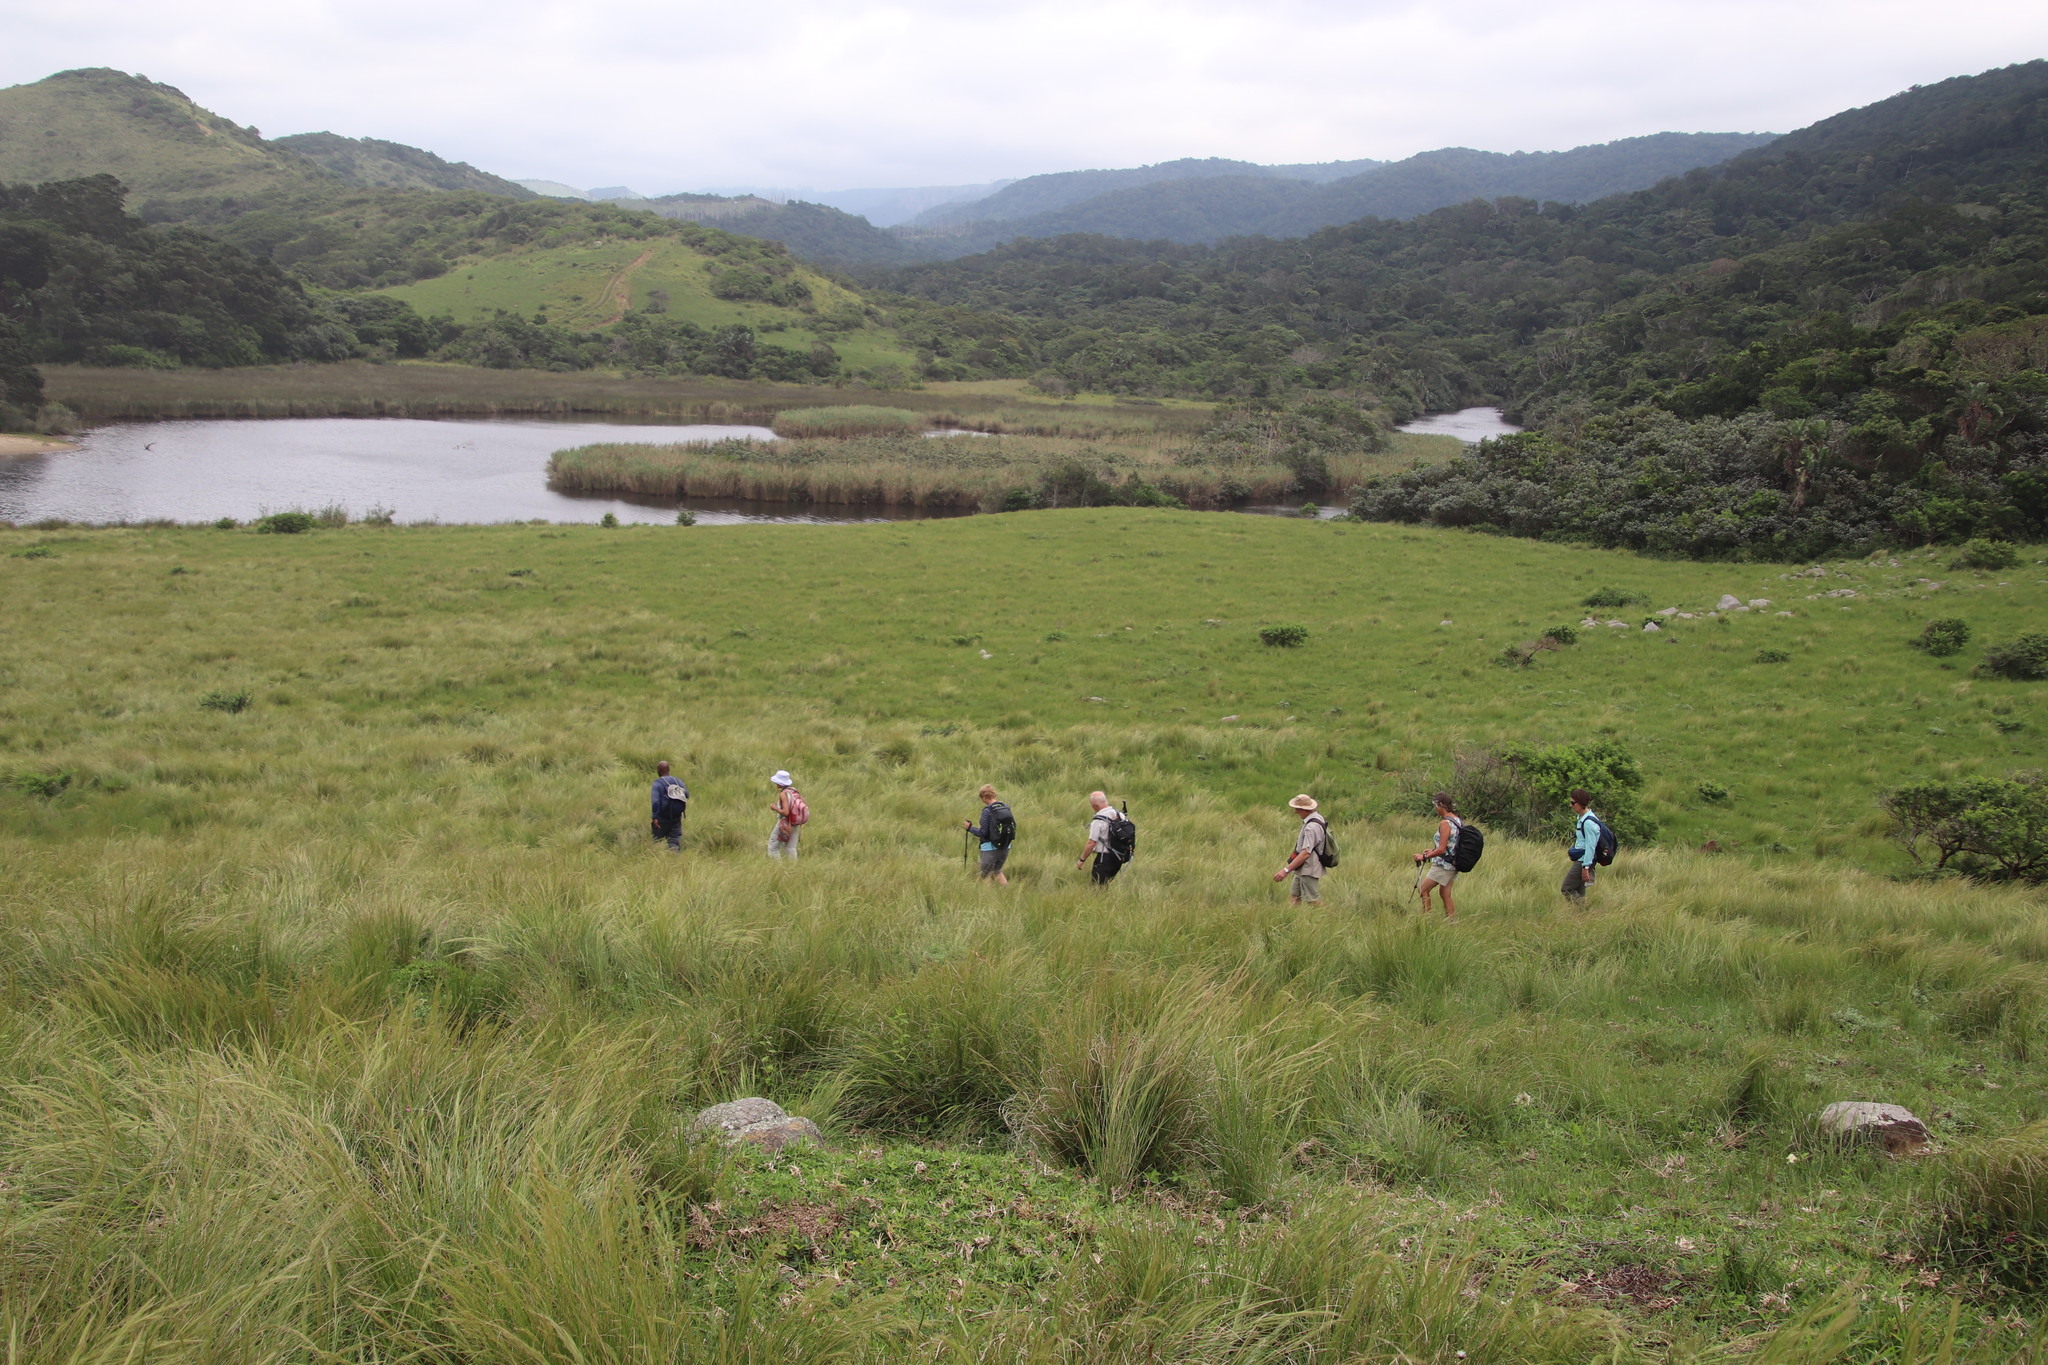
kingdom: Plantae
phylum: Tracheophyta
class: Liliopsida
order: Poales
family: Poaceae
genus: Phragmites
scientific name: Phragmites australis
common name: Common reed
